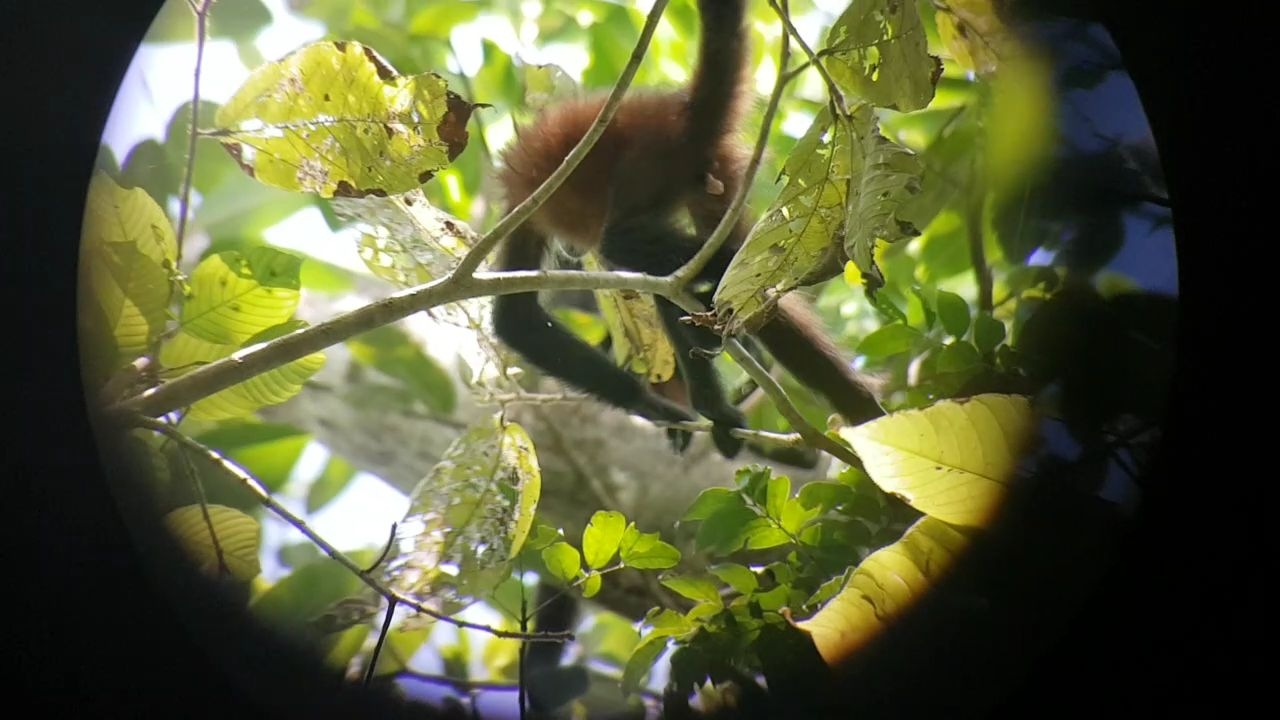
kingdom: Animalia
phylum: Chordata
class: Mammalia
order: Primates
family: Atelidae
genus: Ateles
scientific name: Ateles geoffroyi
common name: Black-handed spider monkey
